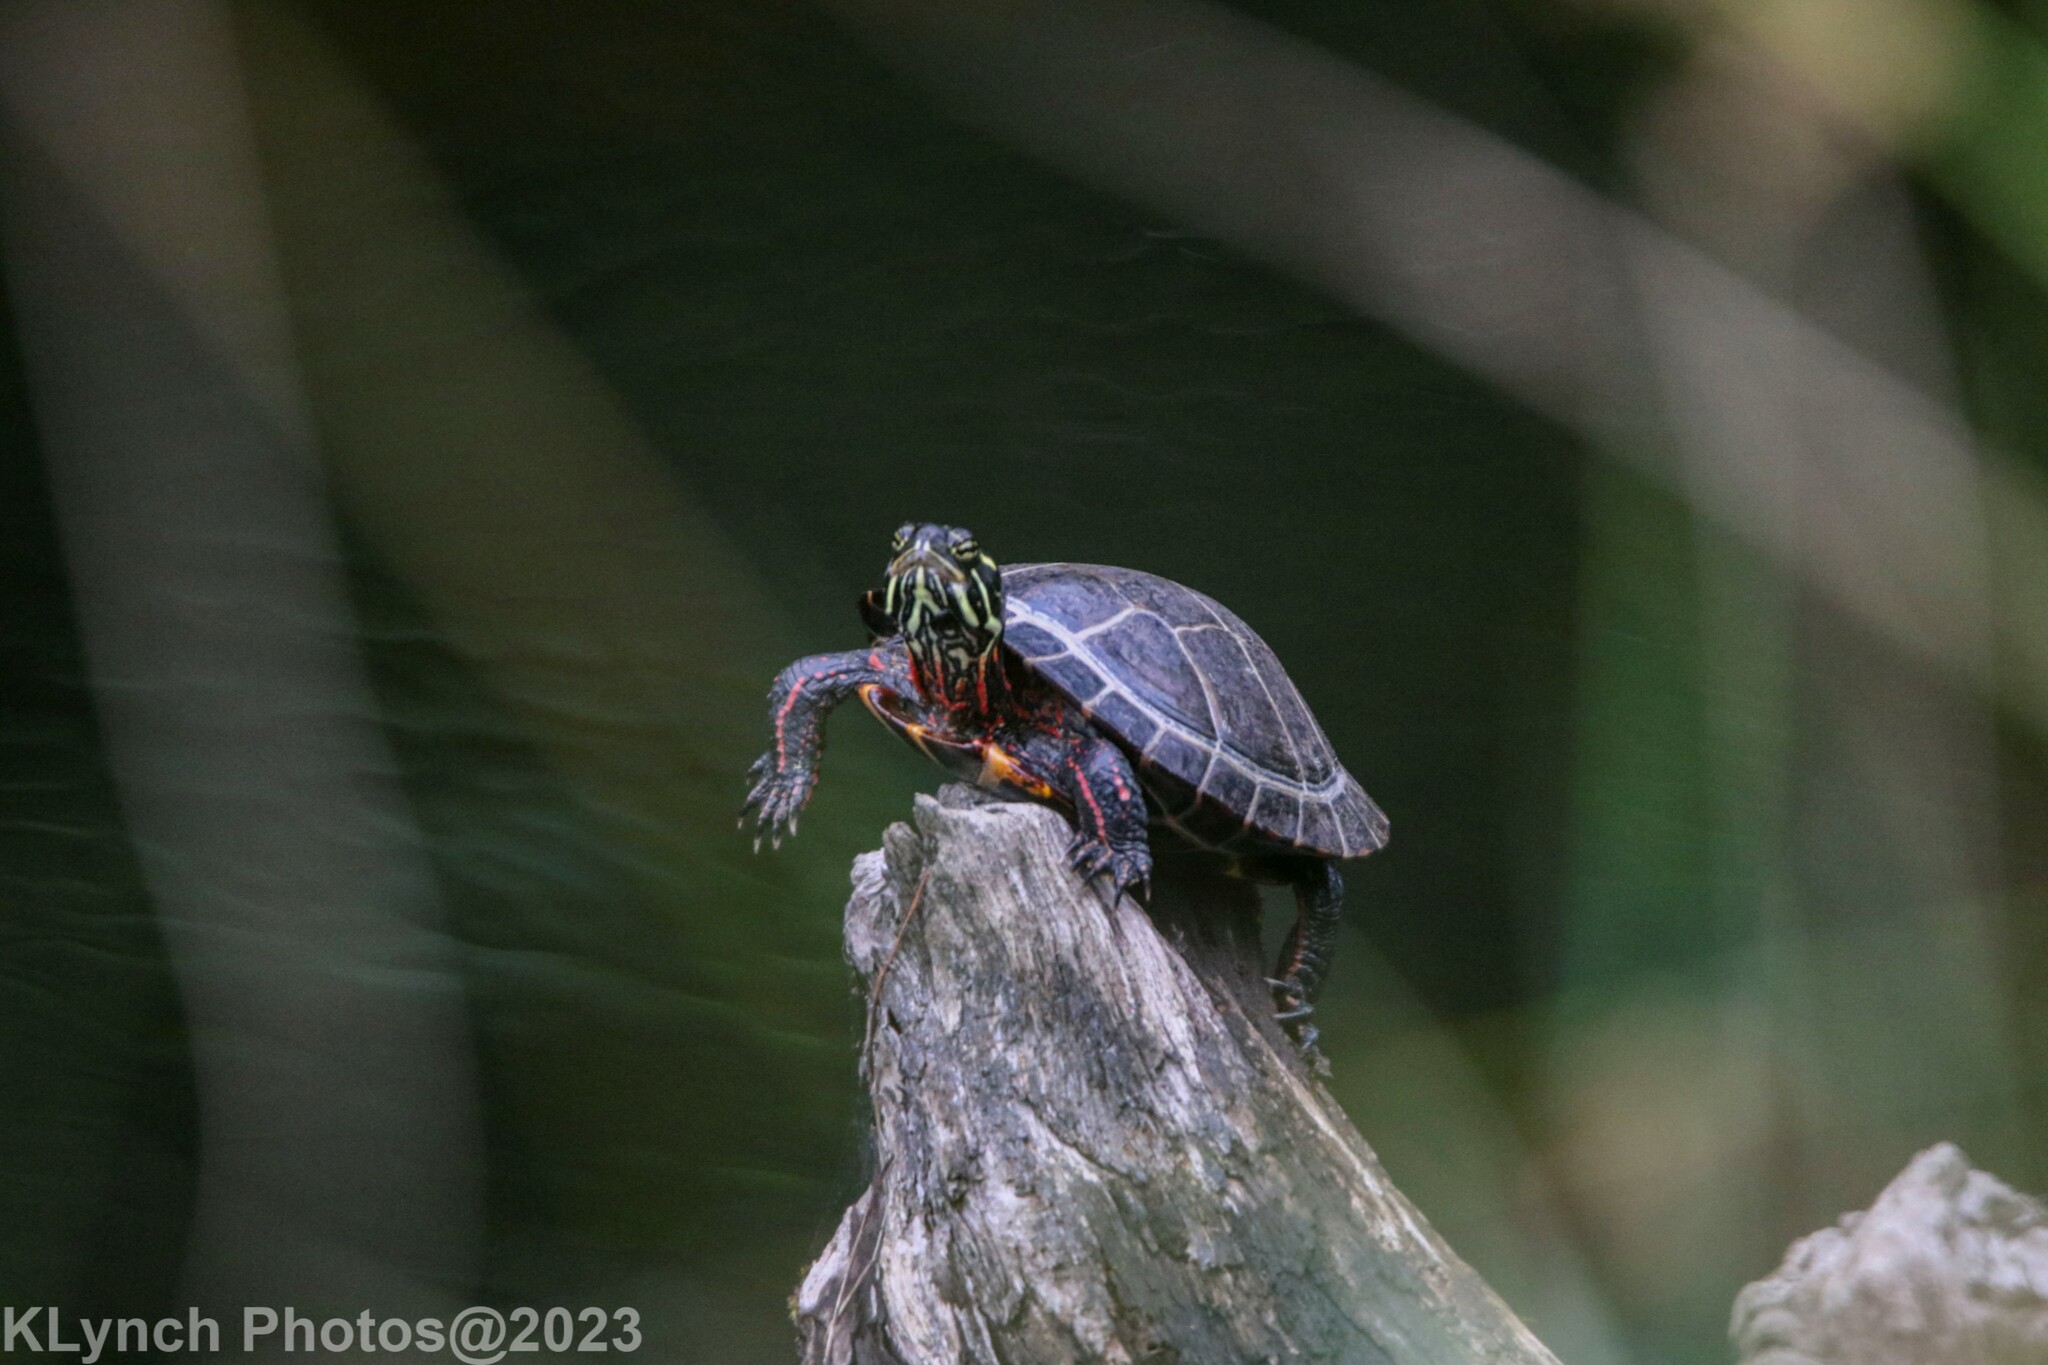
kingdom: Animalia
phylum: Chordata
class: Testudines
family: Emydidae
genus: Chrysemys
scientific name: Chrysemys picta
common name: Painted turtle
